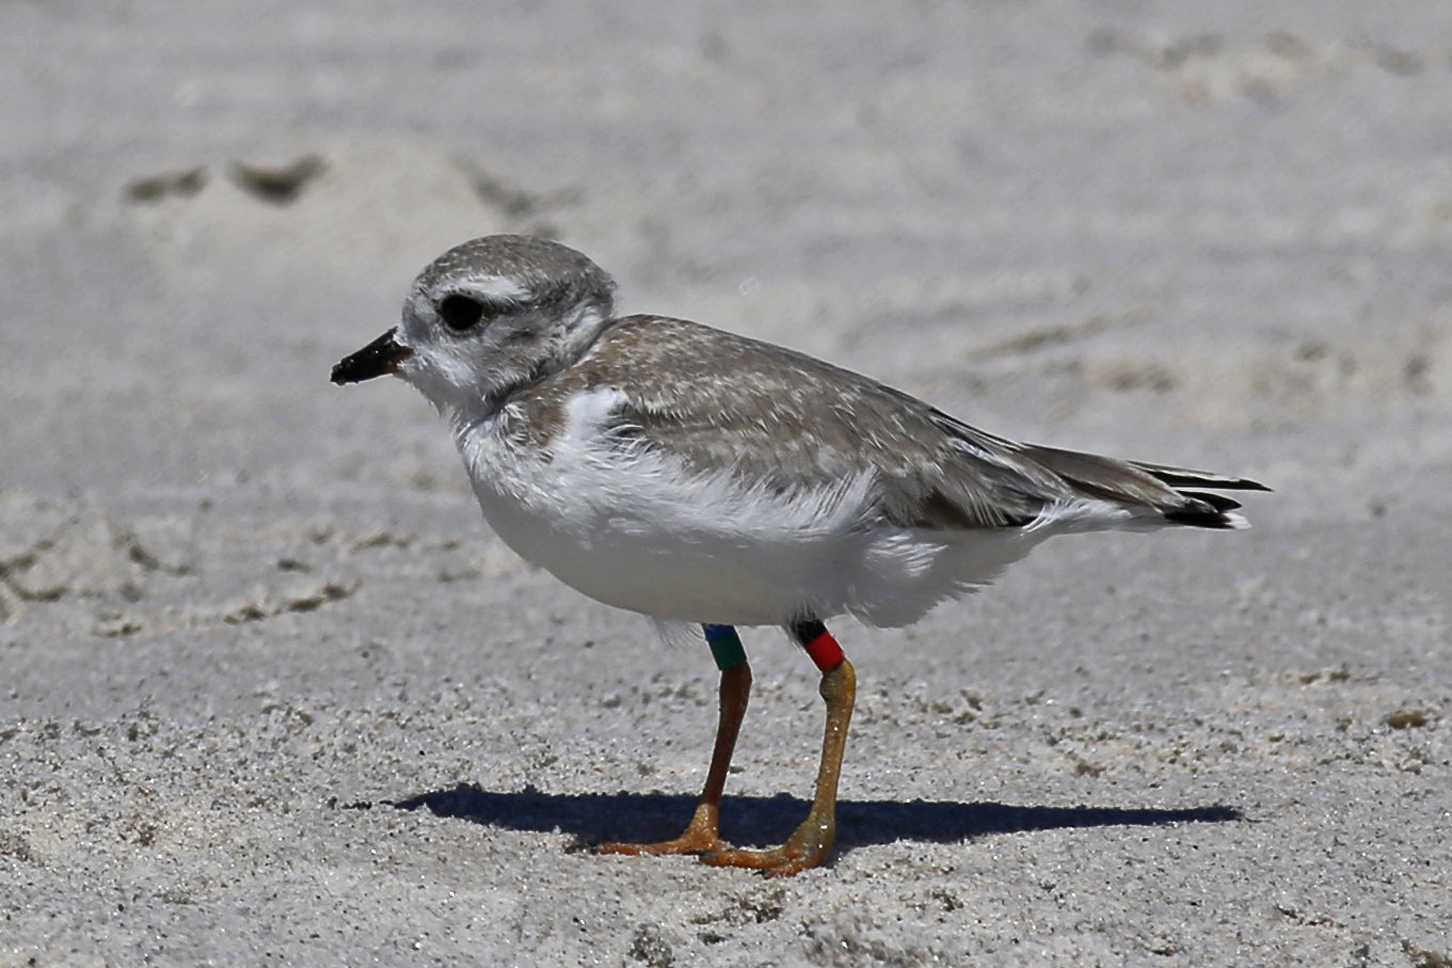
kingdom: Animalia
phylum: Chordata
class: Aves
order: Charadriiformes
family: Charadriidae
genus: Charadrius
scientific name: Charadrius melodus
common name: Piping plover
